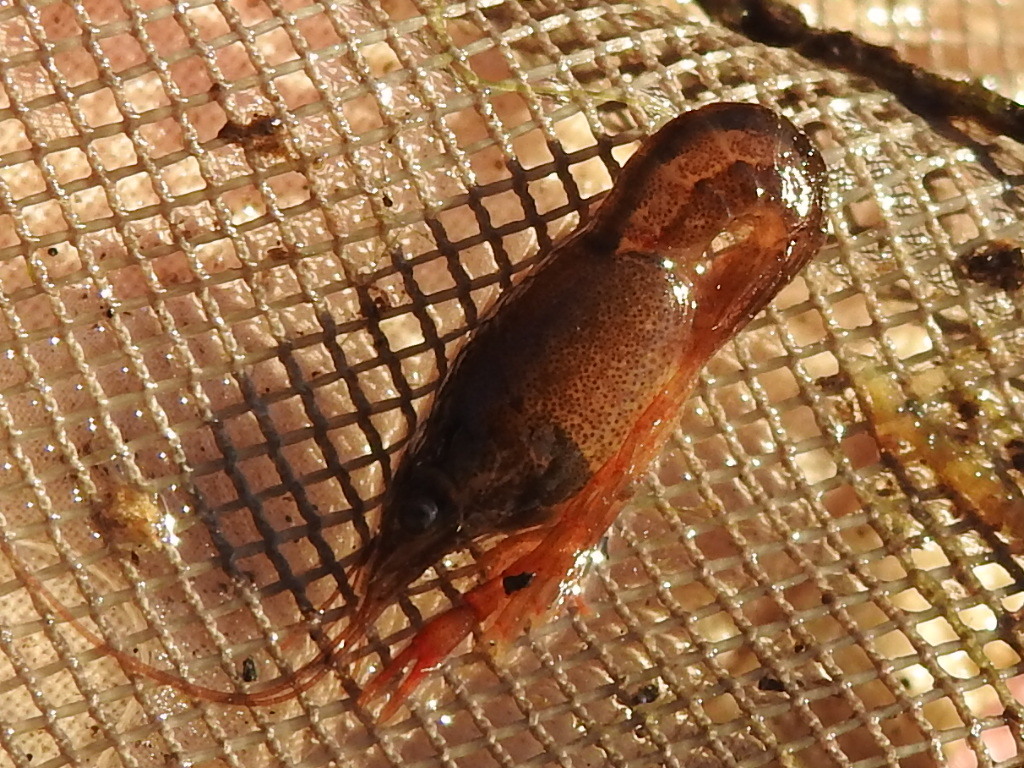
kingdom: Animalia
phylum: Arthropoda
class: Malacostraca
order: Decapoda
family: Cambaridae
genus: Procambarus
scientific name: Procambarus clarkii
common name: Red swamp crayfish
